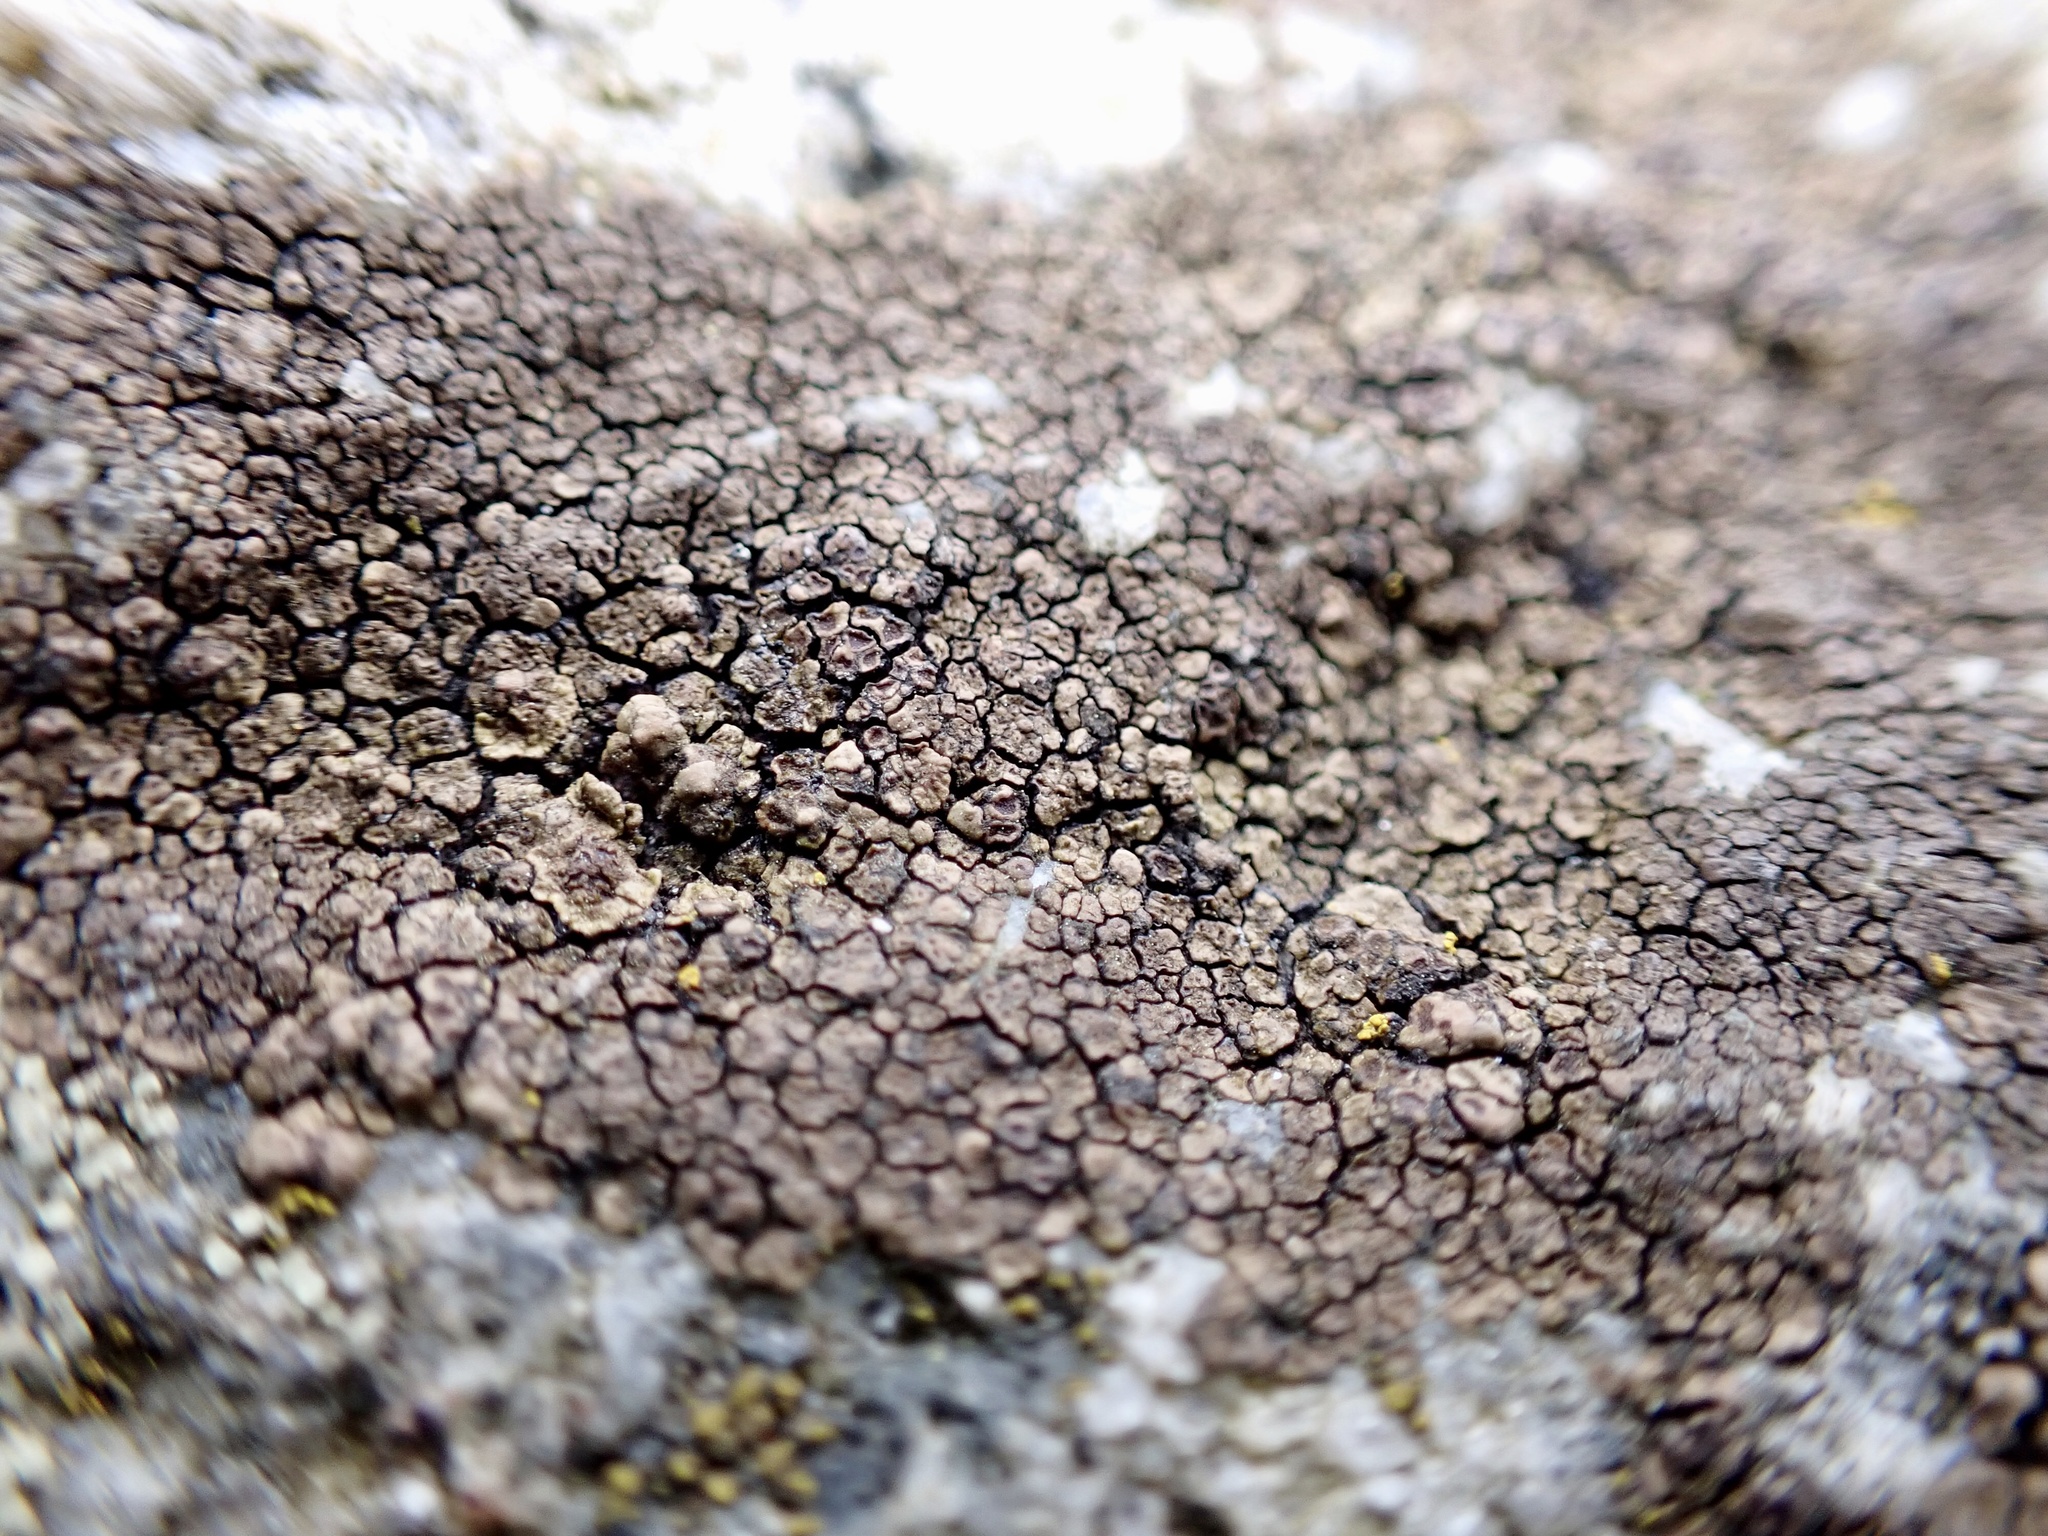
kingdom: Fungi
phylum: Ascomycota
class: Lecanoromycetes
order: Acarosporales
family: Acarosporaceae
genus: Acarospora
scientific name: Acarospora fuscata
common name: Brown cobblestone lichen
